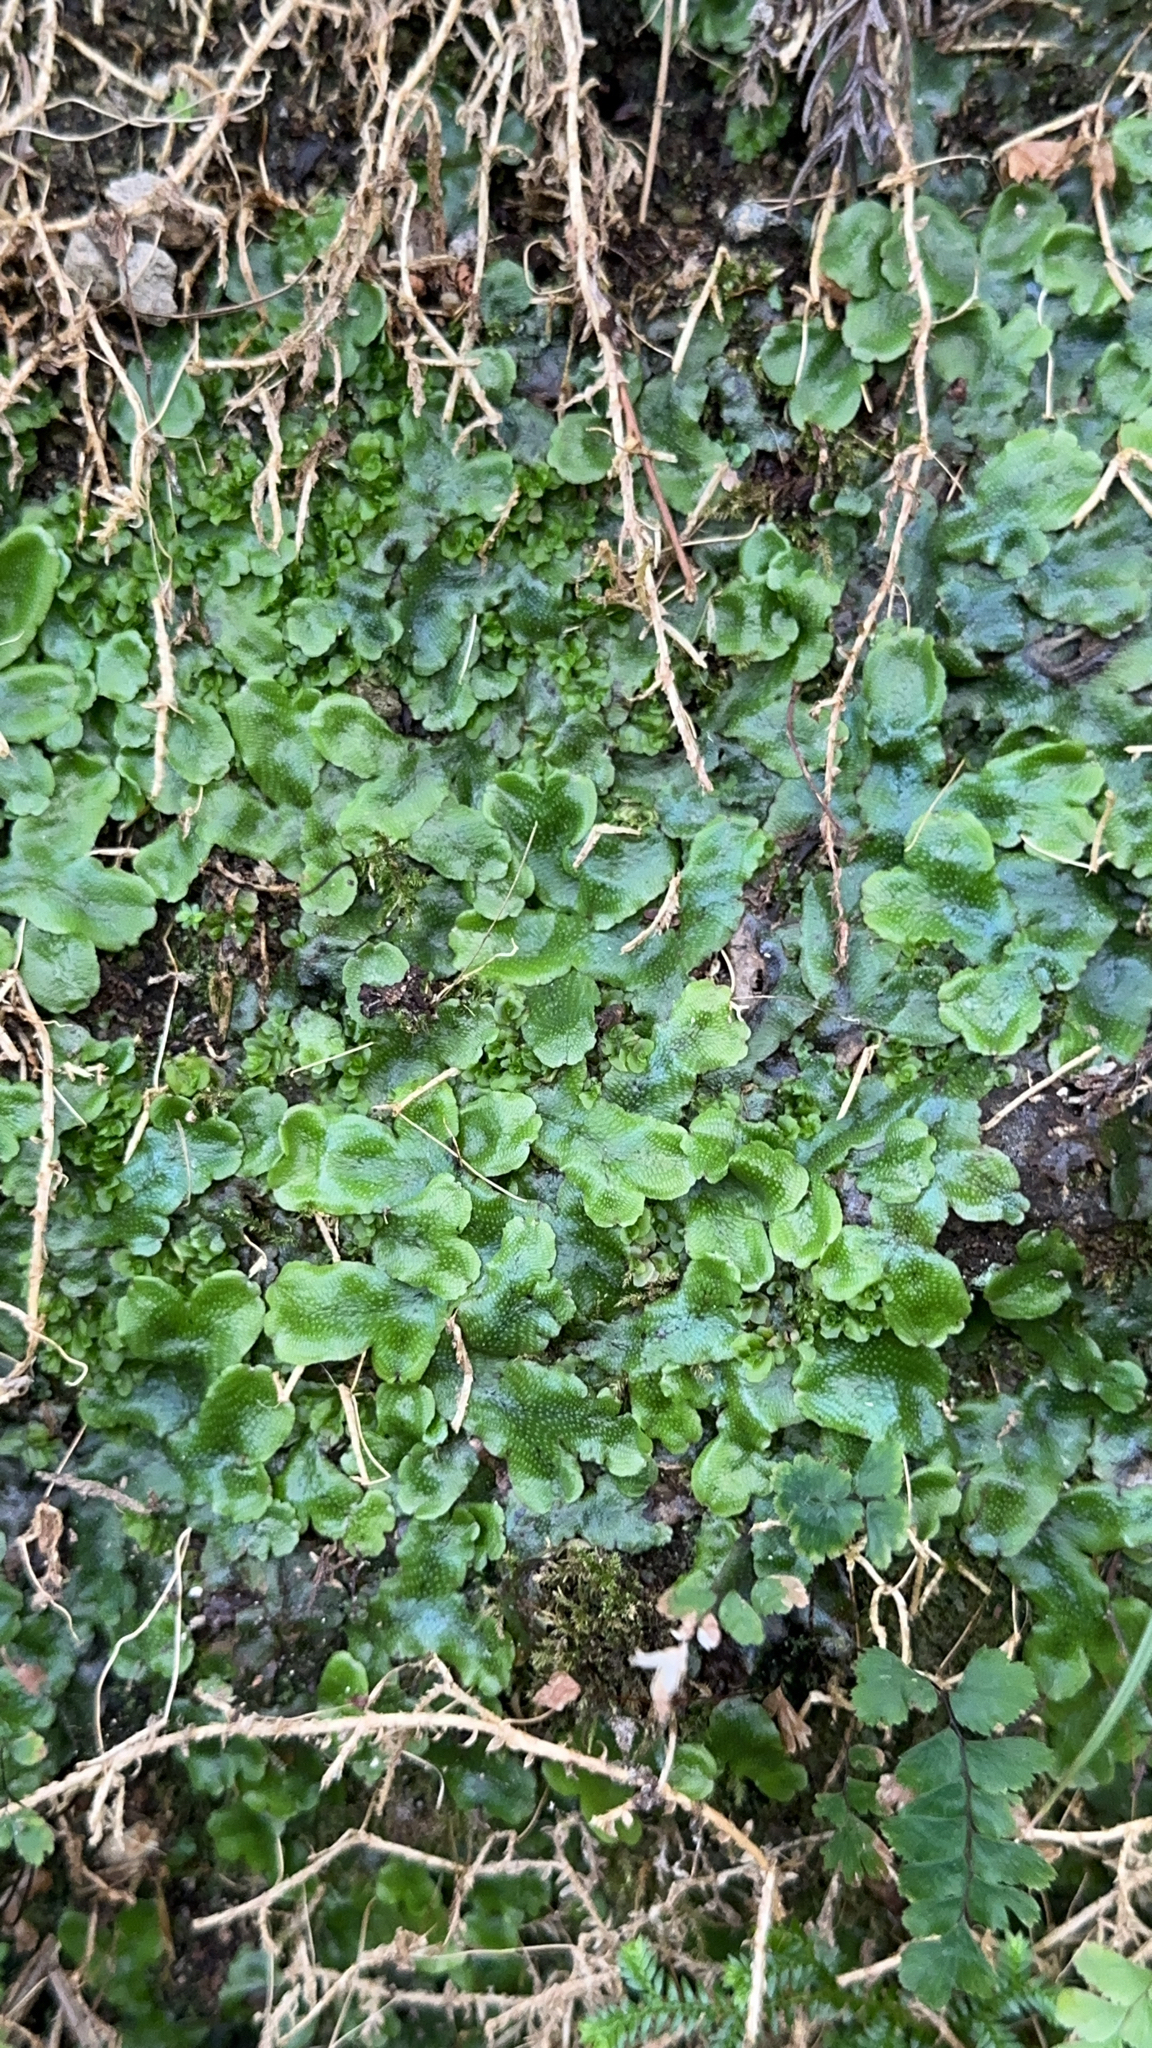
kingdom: Plantae
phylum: Marchantiophyta
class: Marchantiopsida
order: Marchantiales
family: Conocephalaceae
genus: Conocephalum
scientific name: Conocephalum conicum
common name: Great scented liverwort
